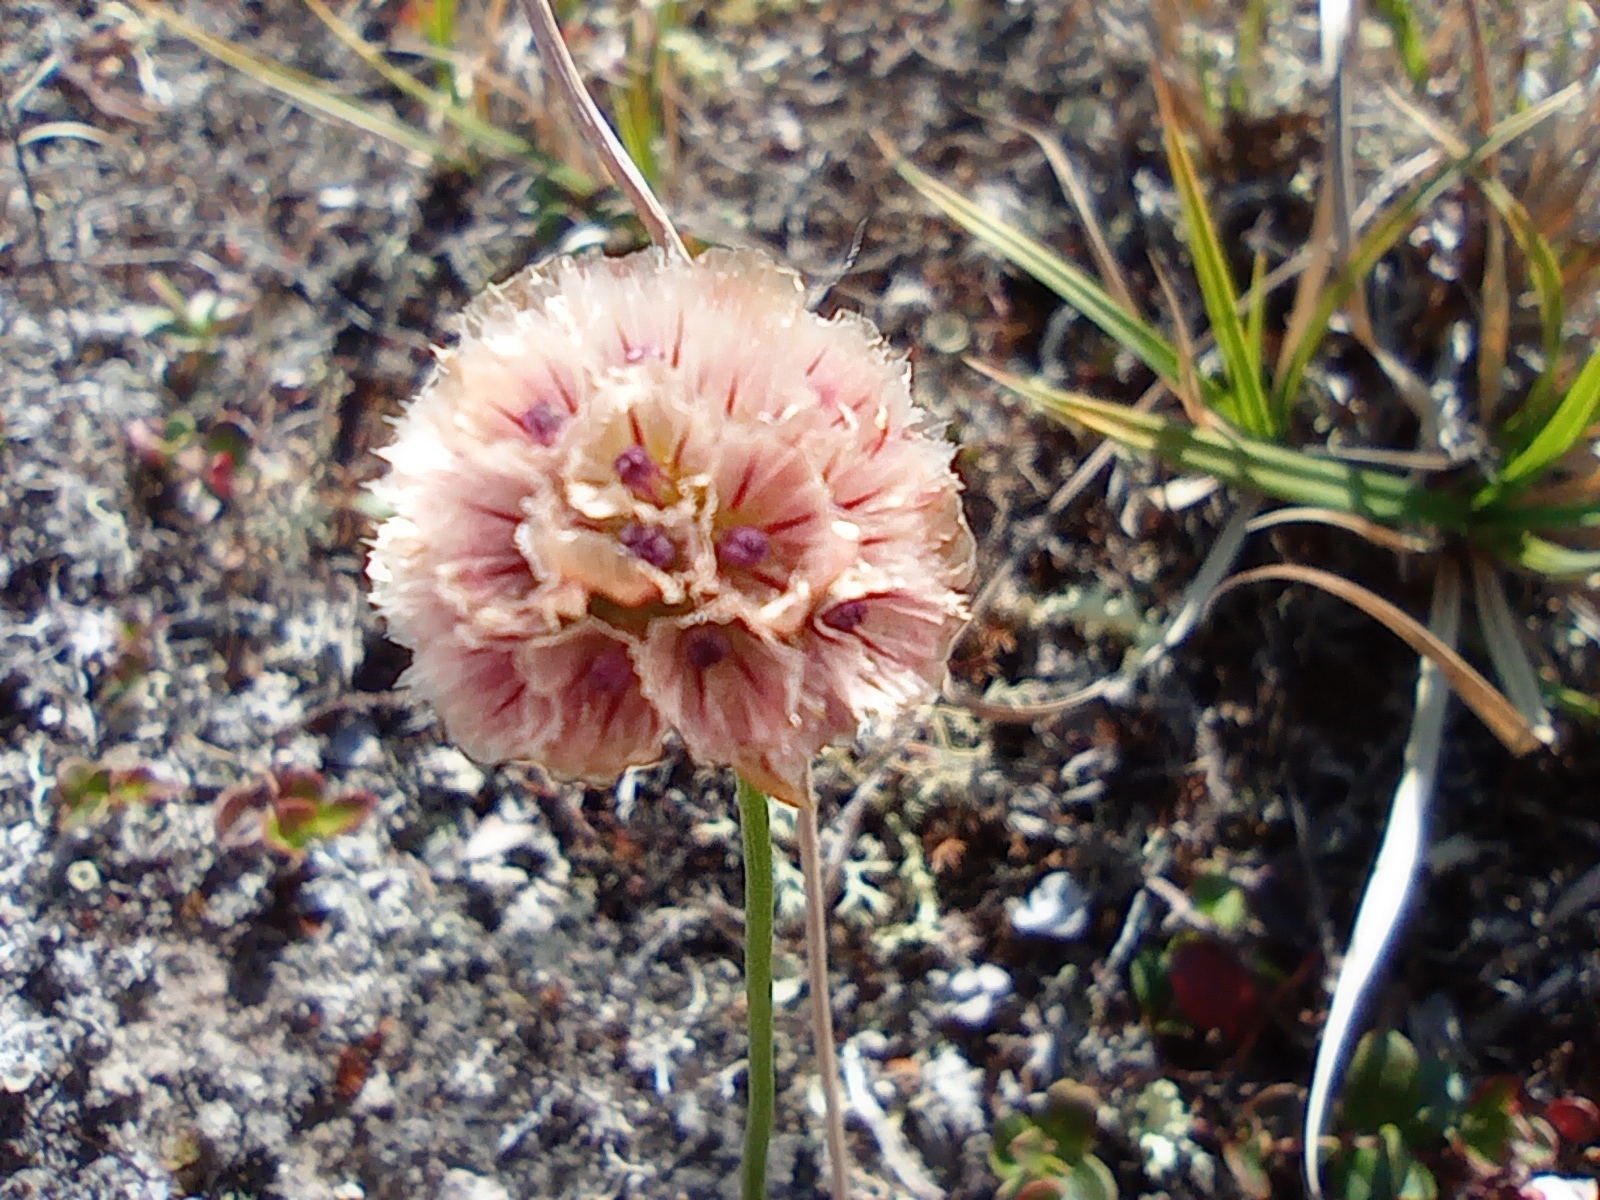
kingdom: Plantae
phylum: Tracheophyta
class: Magnoliopsida
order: Caryophyllales
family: Plumbaginaceae
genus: Armeria
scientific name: Armeria maritima
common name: Thrift
